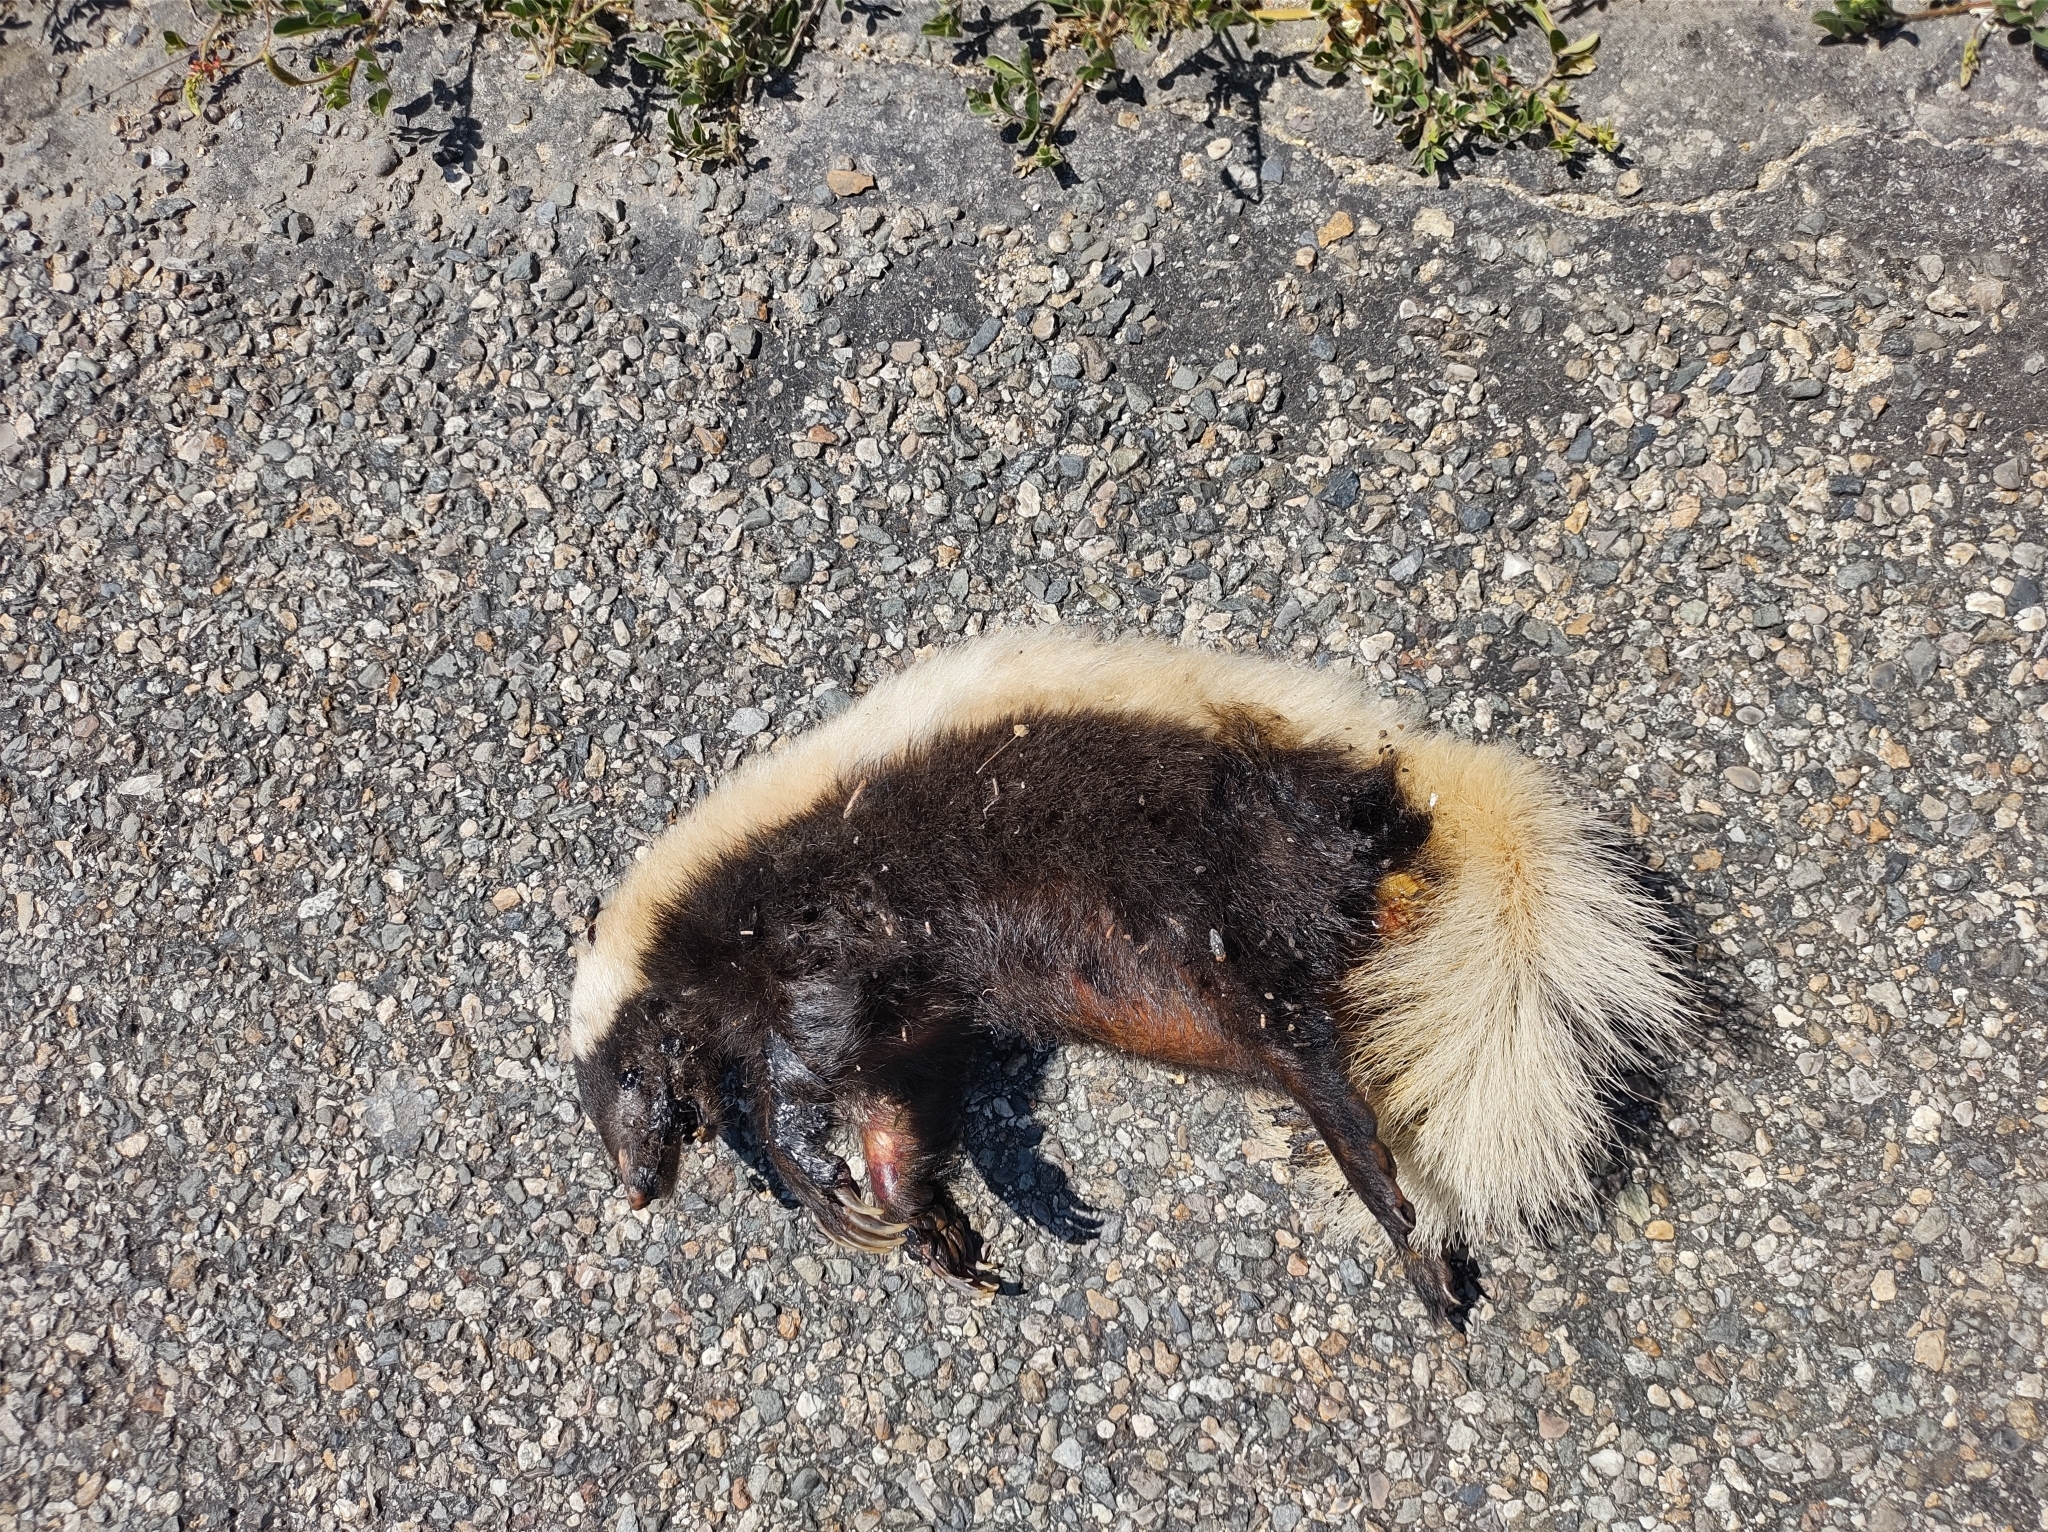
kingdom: Animalia
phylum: Chordata
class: Mammalia
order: Carnivora
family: Mephitidae
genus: Conepatus
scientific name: Conepatus leuconotus
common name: Eastern hog-nosed skunk
